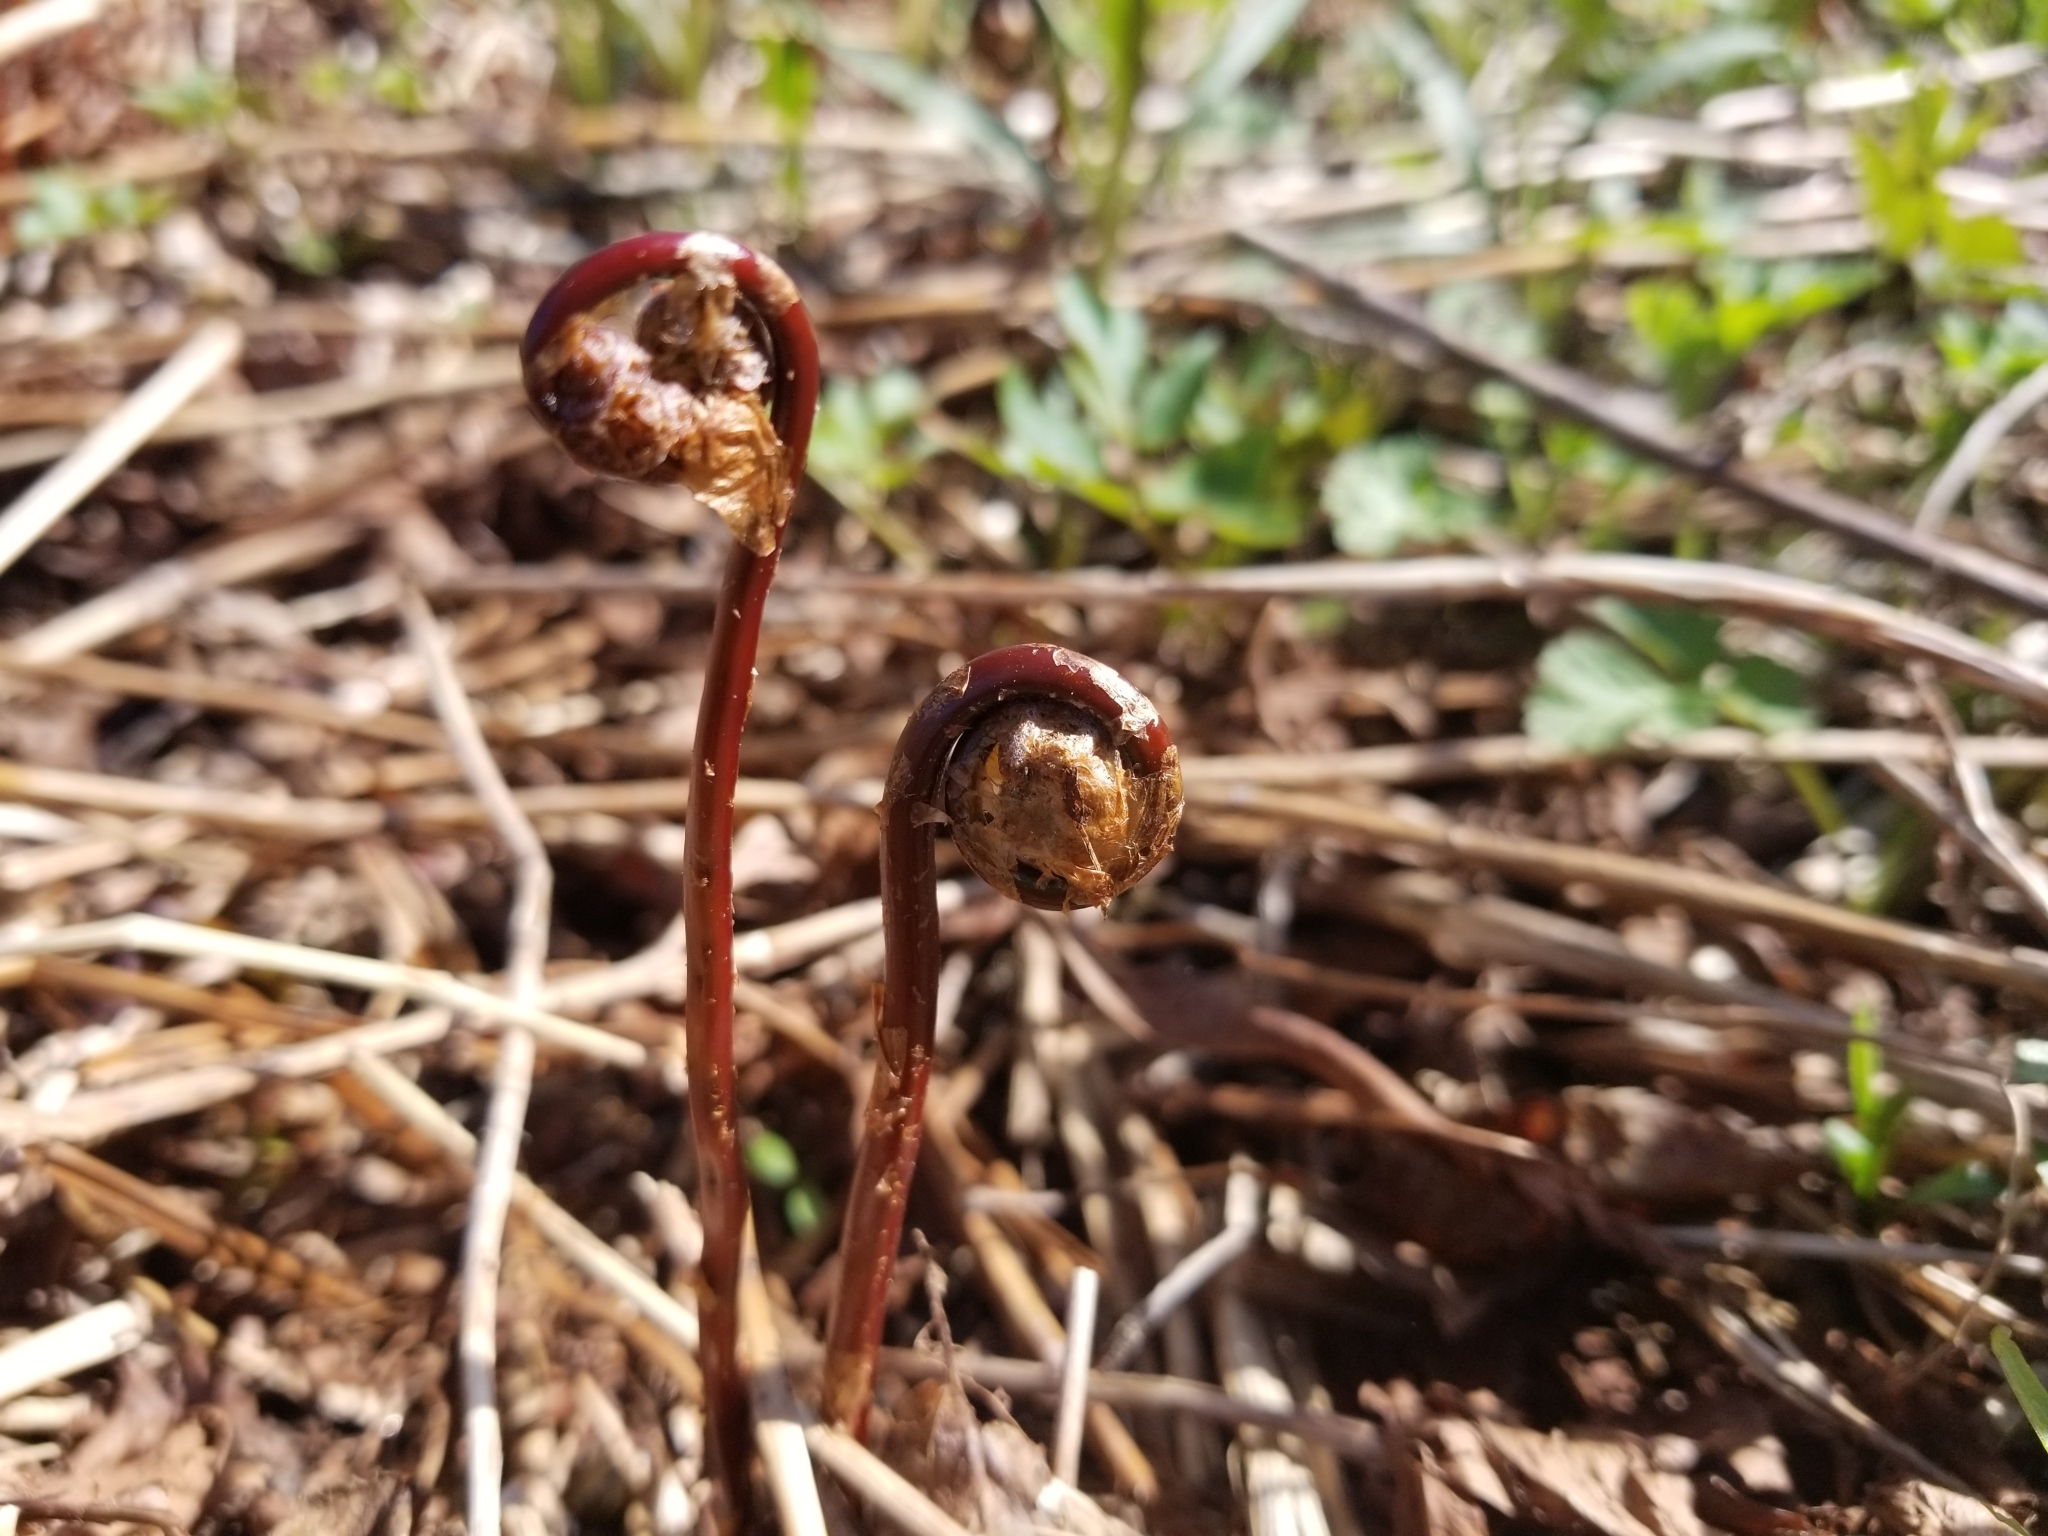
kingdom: Plantae
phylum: Tracheophyta
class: Polypodiopsida
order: Polypodiales
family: Onocleaceae
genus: Onoclea
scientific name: Onoclea sensibilis
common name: Sensitive fern
